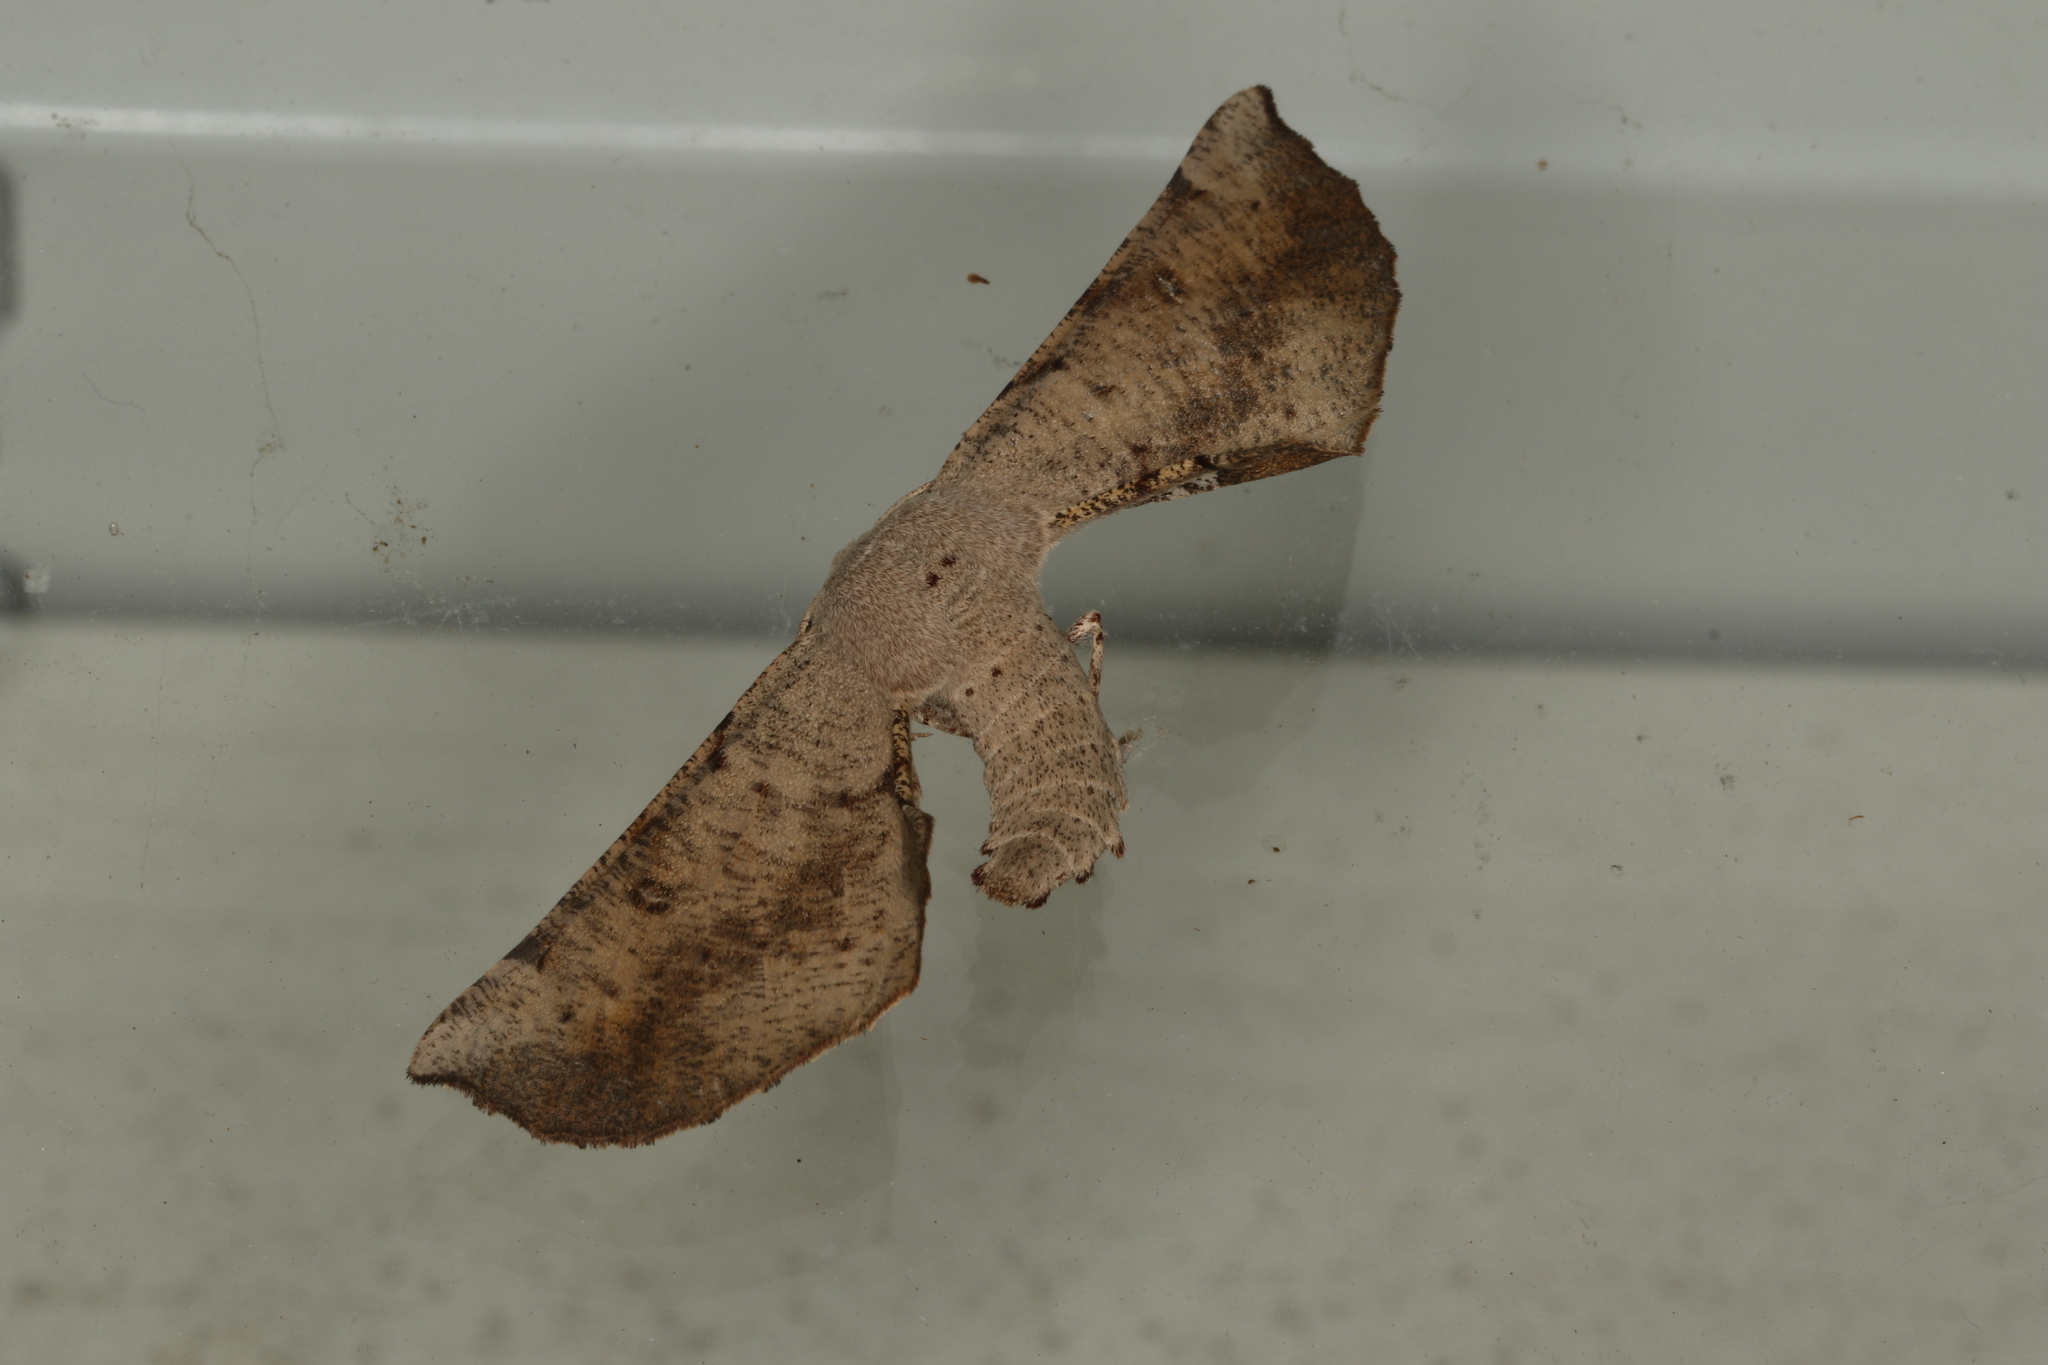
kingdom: Animalia
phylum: Arthropoda
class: Insecta
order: Lepidoptera
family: Geometridae
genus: Circopetes
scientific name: Circopetes obtusata
